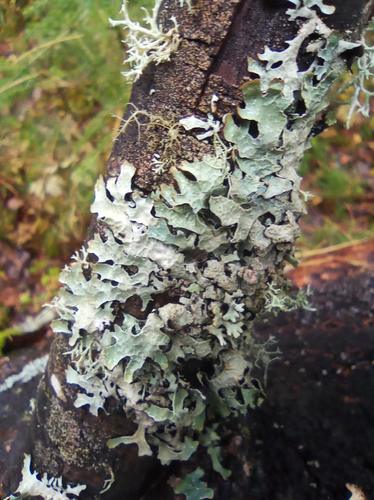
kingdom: Fungi
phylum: Ascomycota
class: Lecanoromycetes
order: Lecanorales
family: Parmeliaceae
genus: Parmelia
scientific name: Parmelia sulcata
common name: Netted shield lichen
